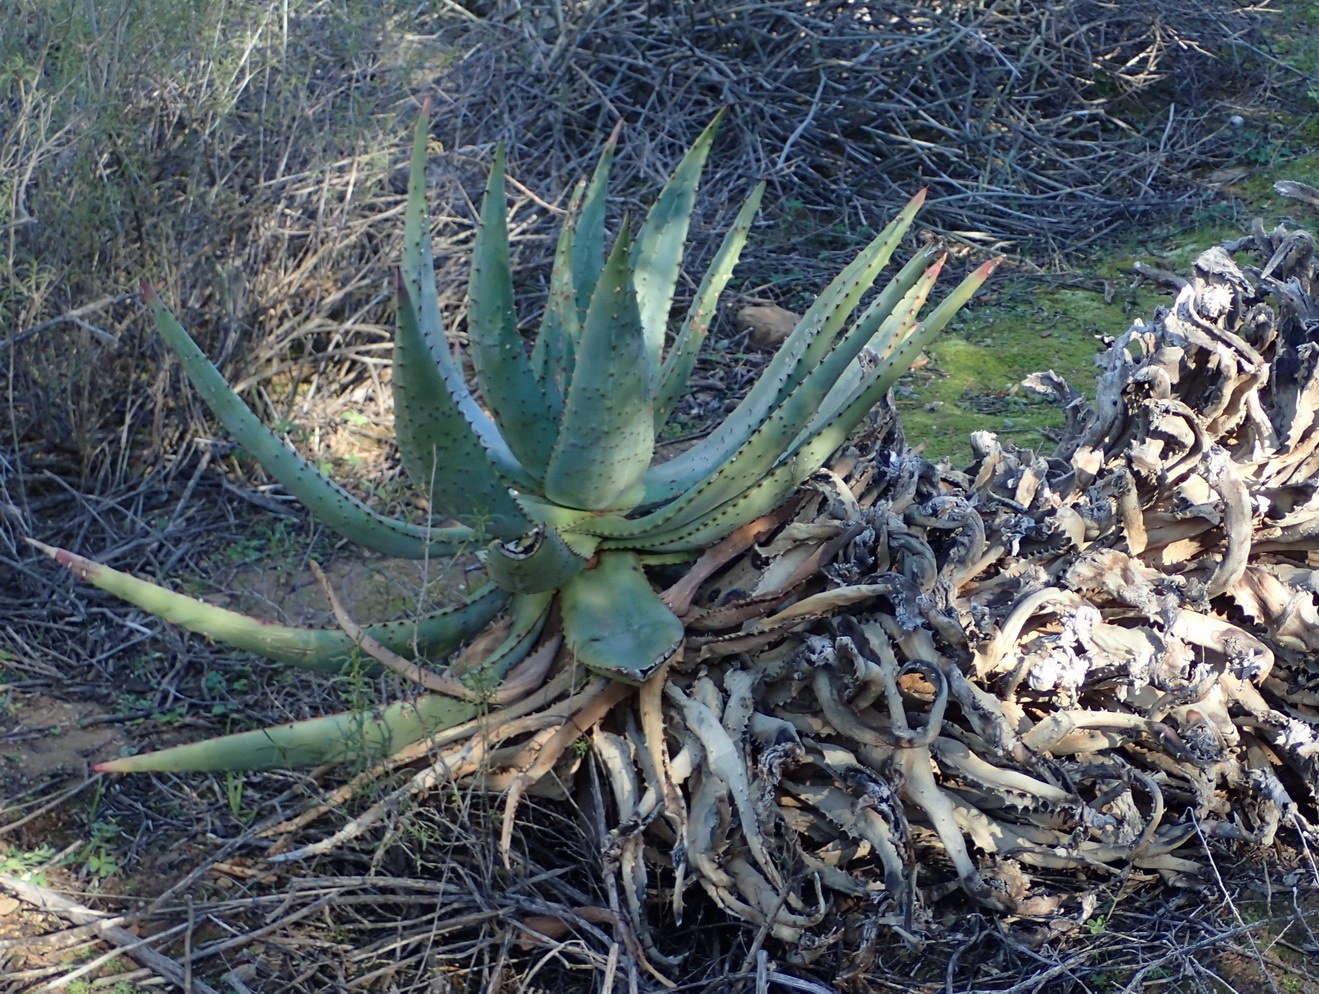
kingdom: Plantae
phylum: Tracheophyta
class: Liliopsida
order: Asparagales
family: Asphodelaceae
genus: Aloe
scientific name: Aloe ferox
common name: Bitter aloe
